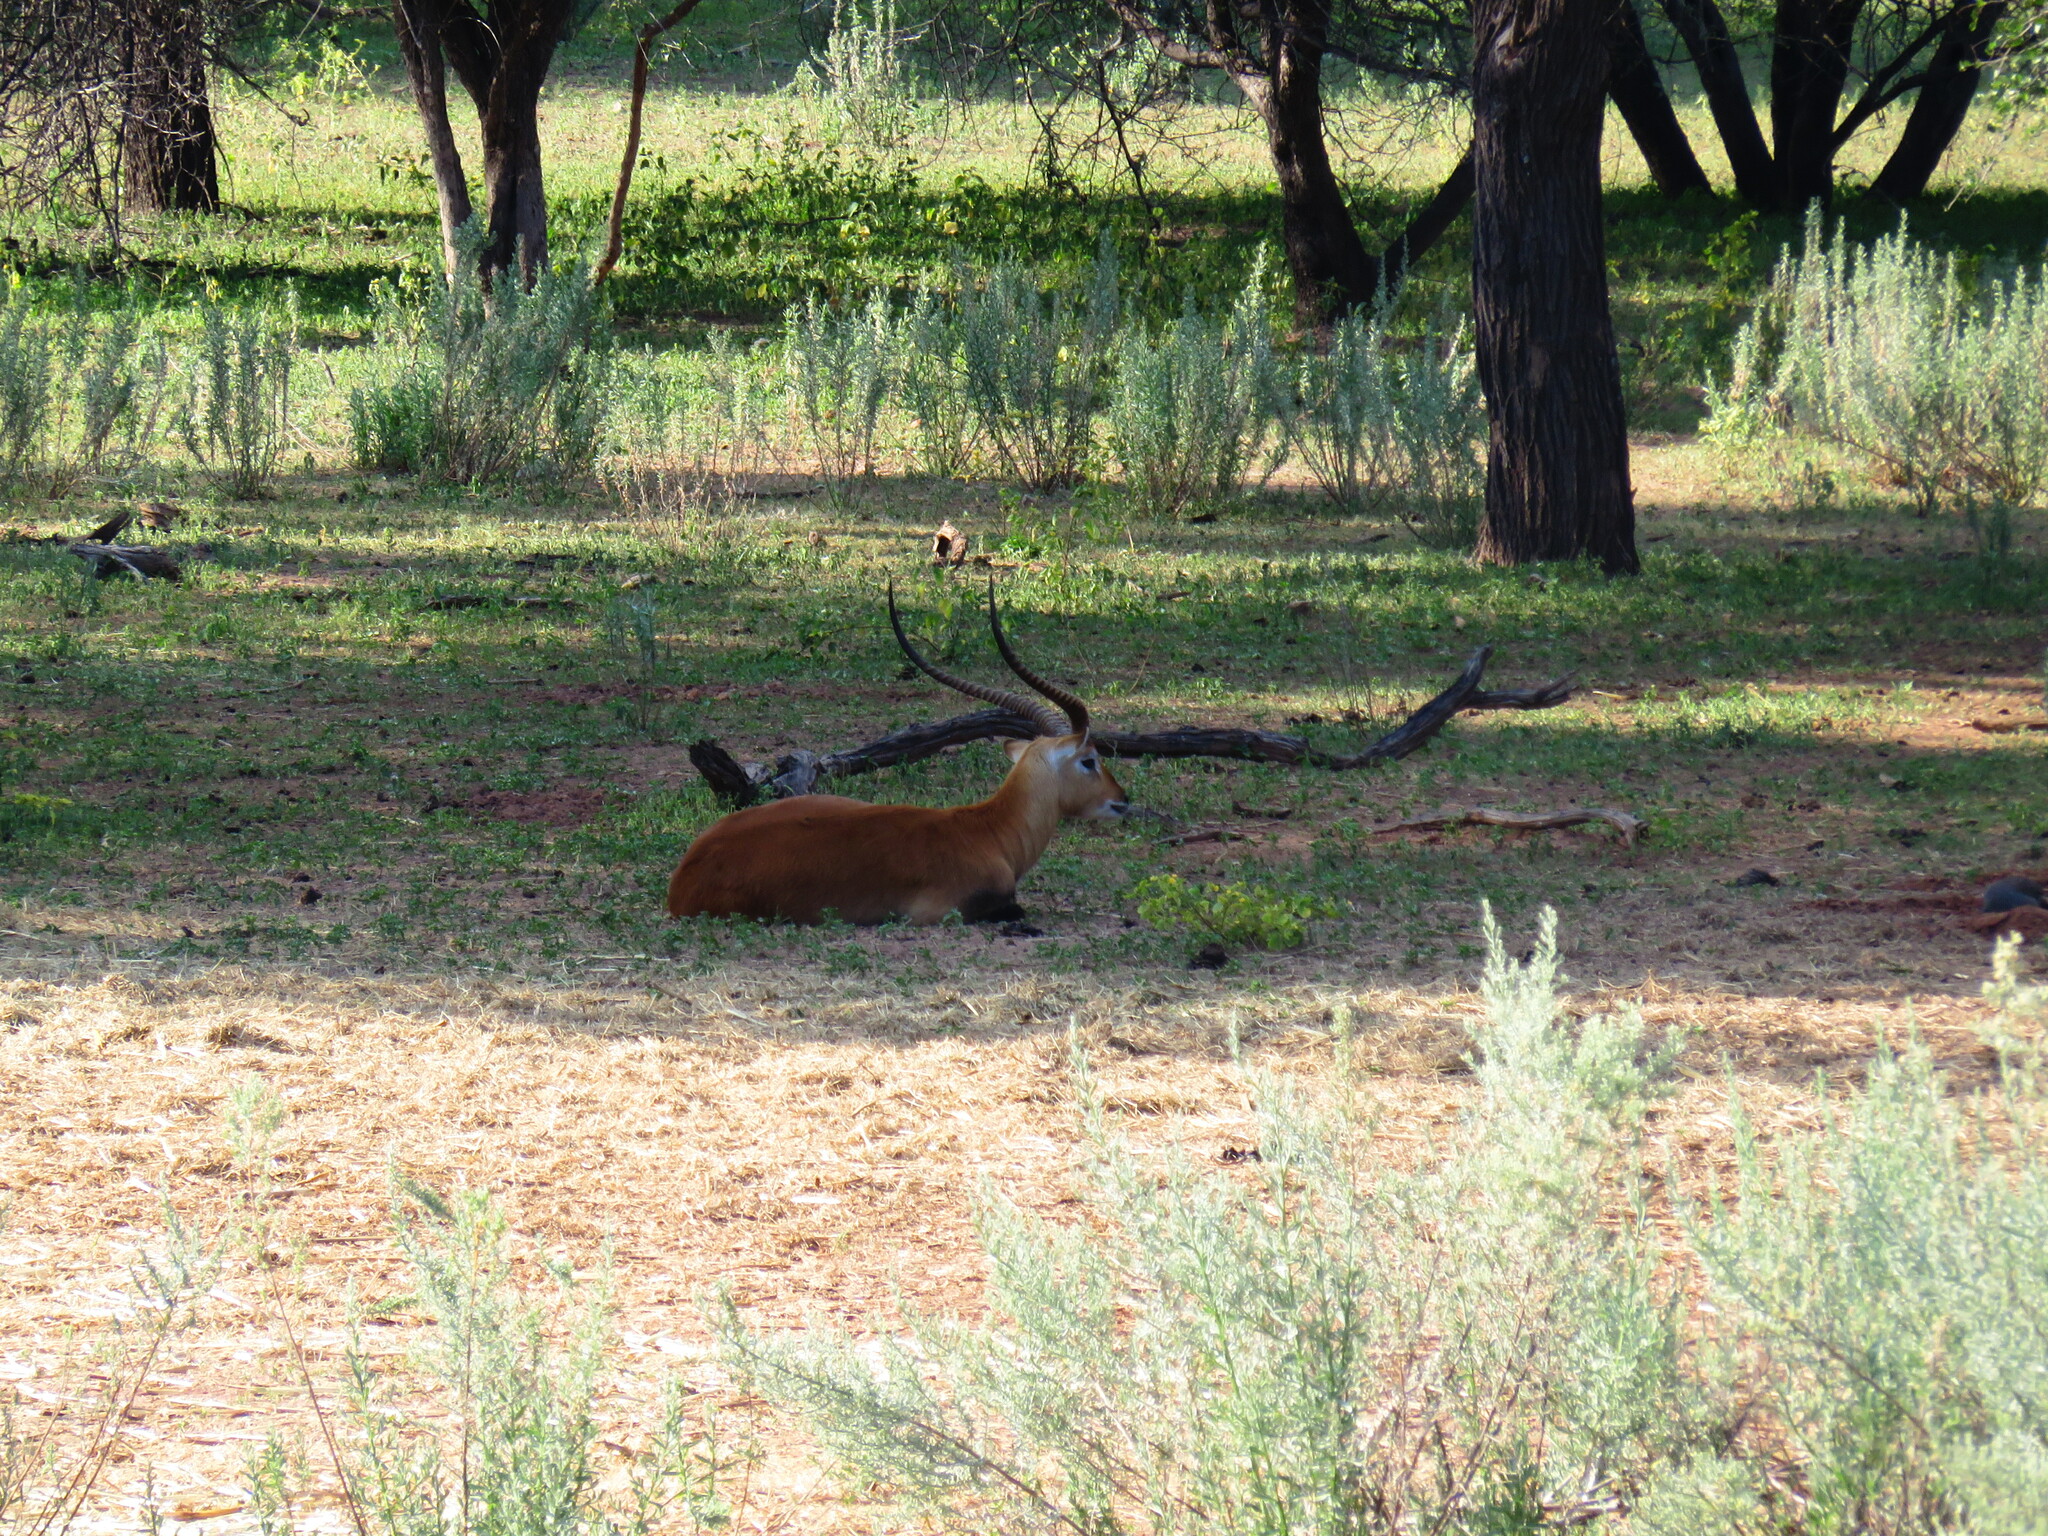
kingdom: Animalia
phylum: Chordata
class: Mammalia
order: Artiodactyla
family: Bovidae
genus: Kobus
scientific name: Kobus leche
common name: Lechwe
